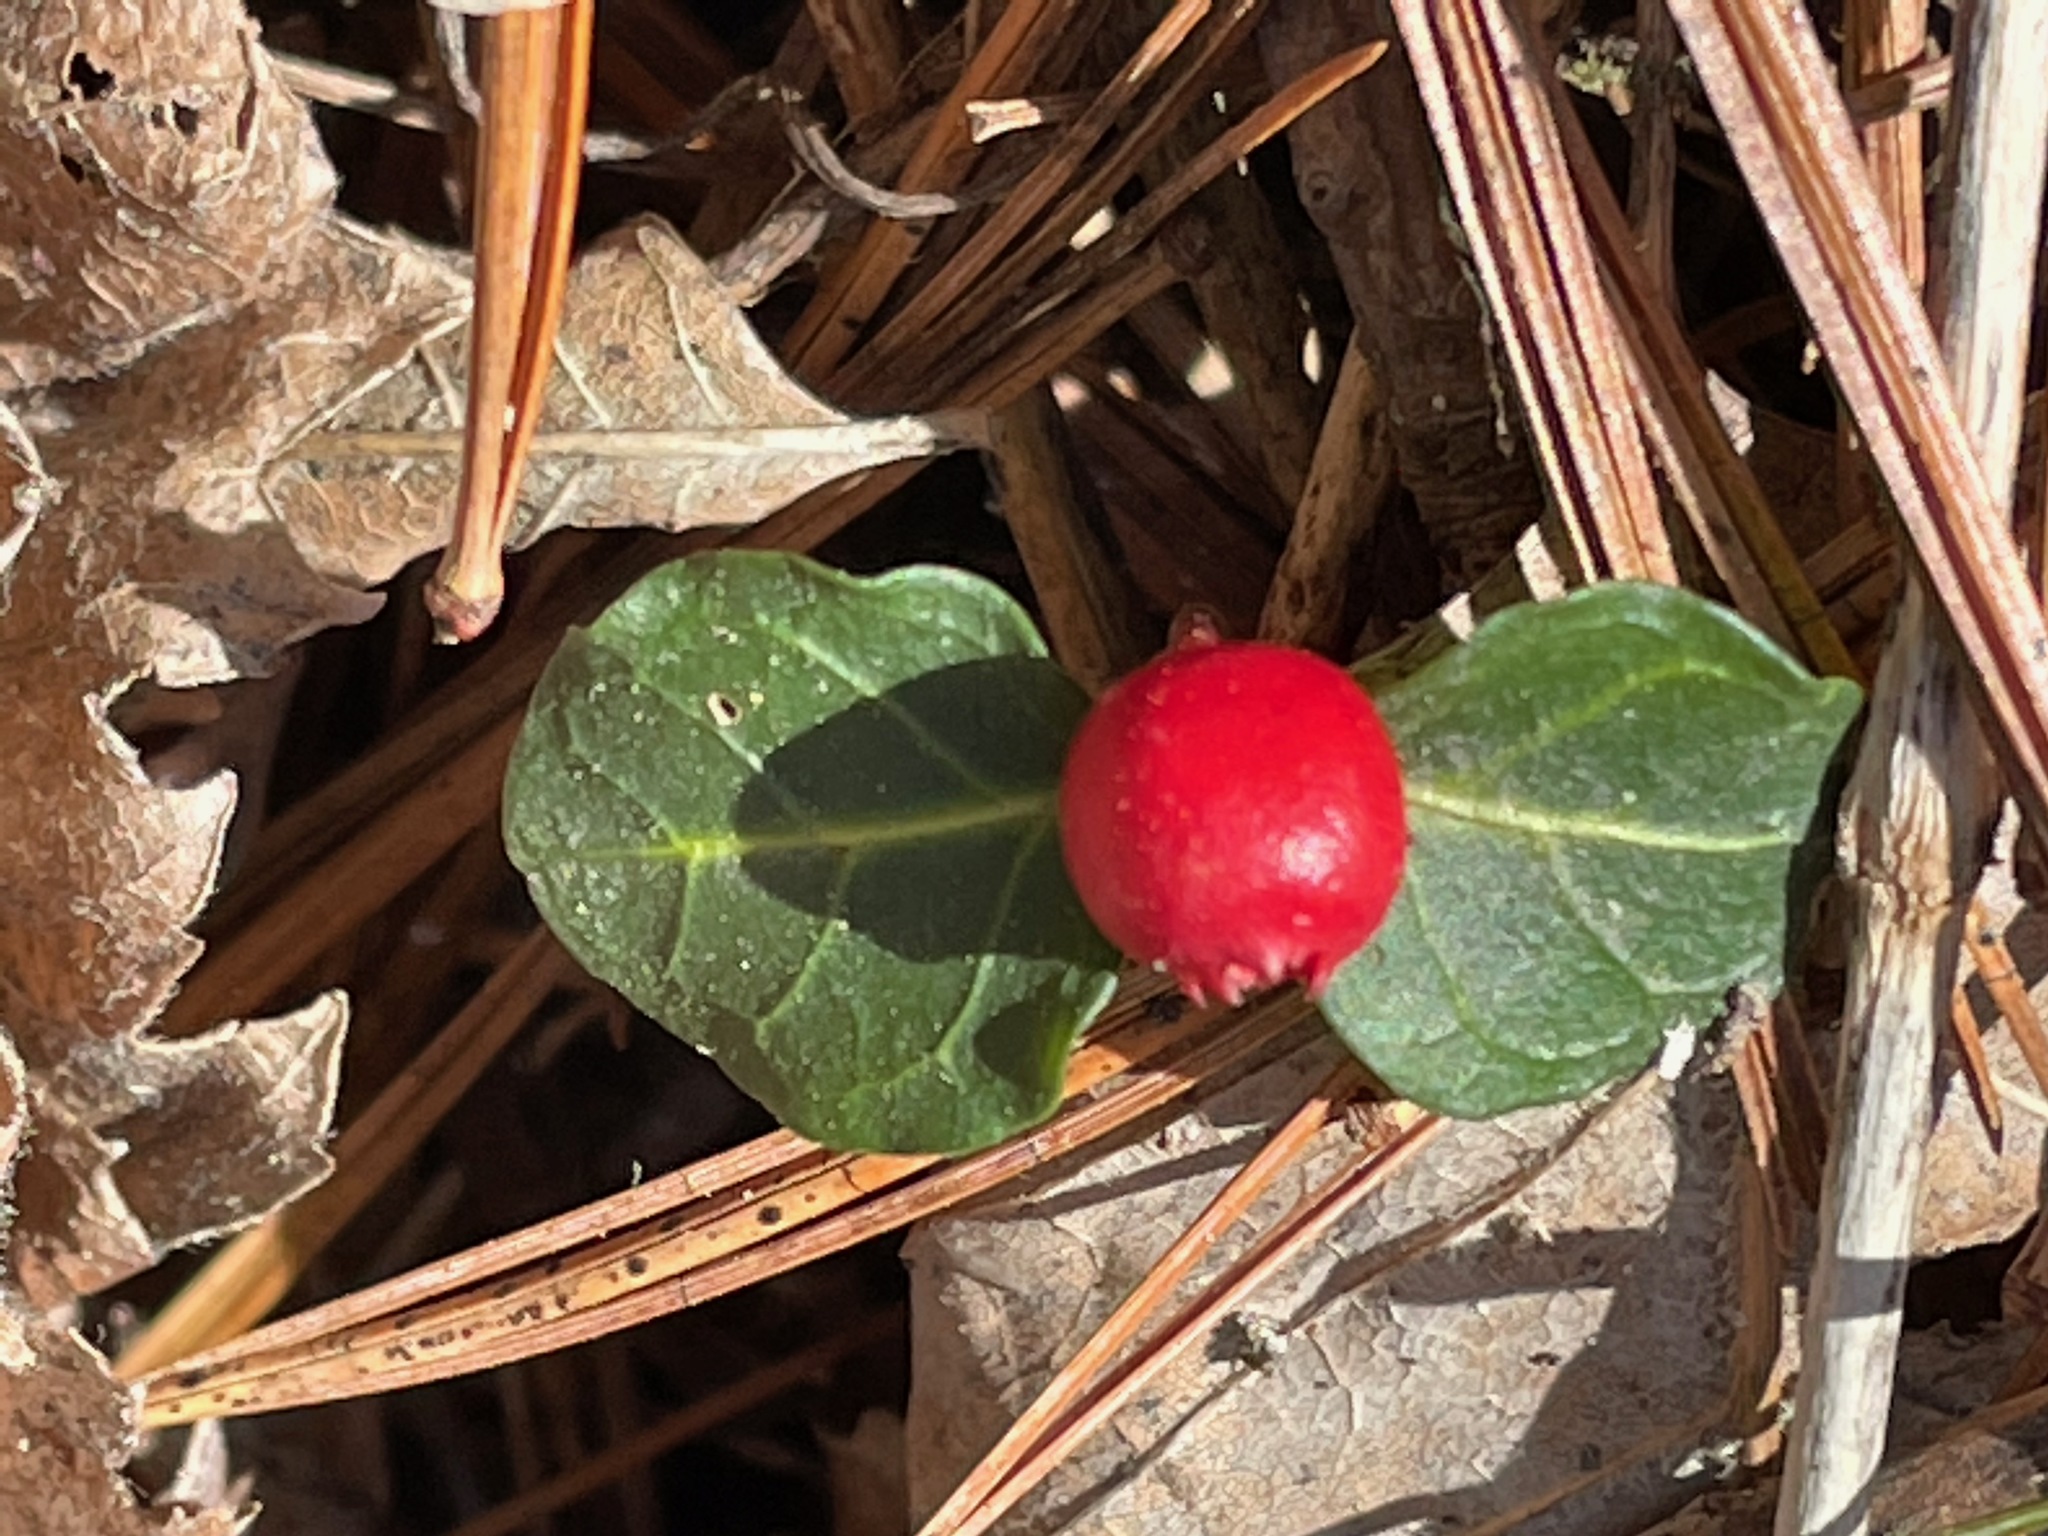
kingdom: Plantae
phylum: Tracheophyta
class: Magnoliopsida
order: Gentianales
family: Rubiaceae
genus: Mitchella
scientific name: Mitchella repens
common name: Partridge-berry
